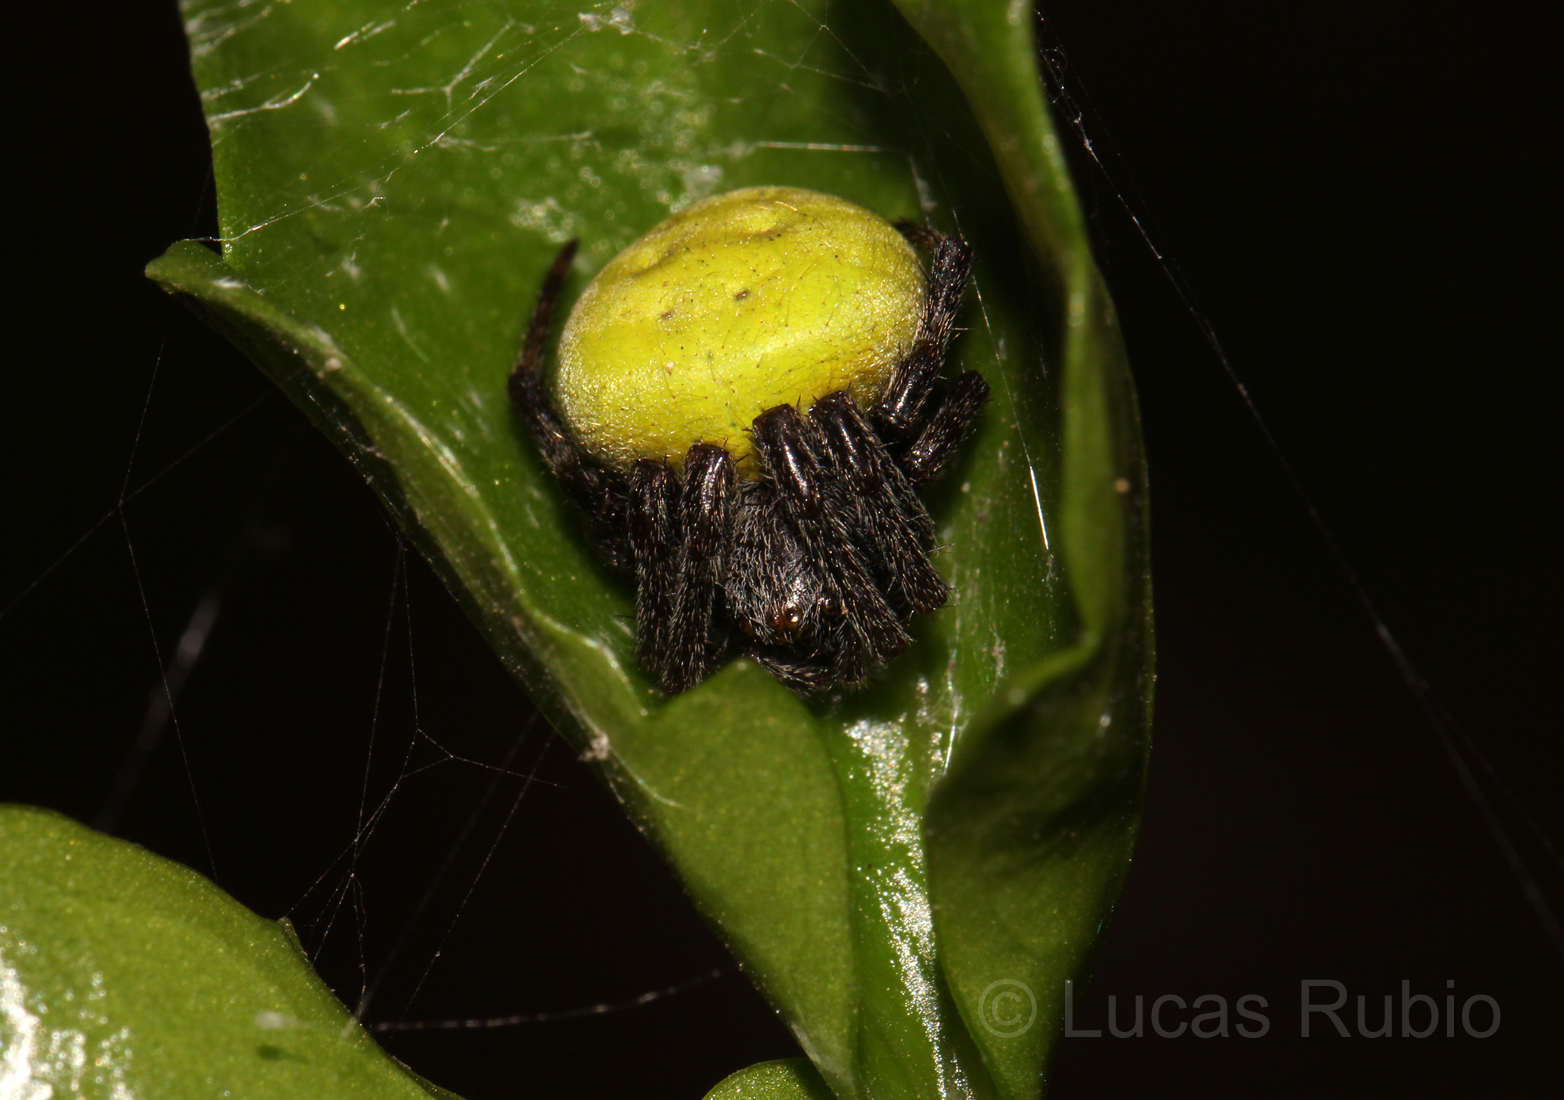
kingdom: Animalia
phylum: Arthropoda
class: Arachnida
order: Araneae
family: Araneidae
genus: Araneus
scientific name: Araneus lathyrinus
